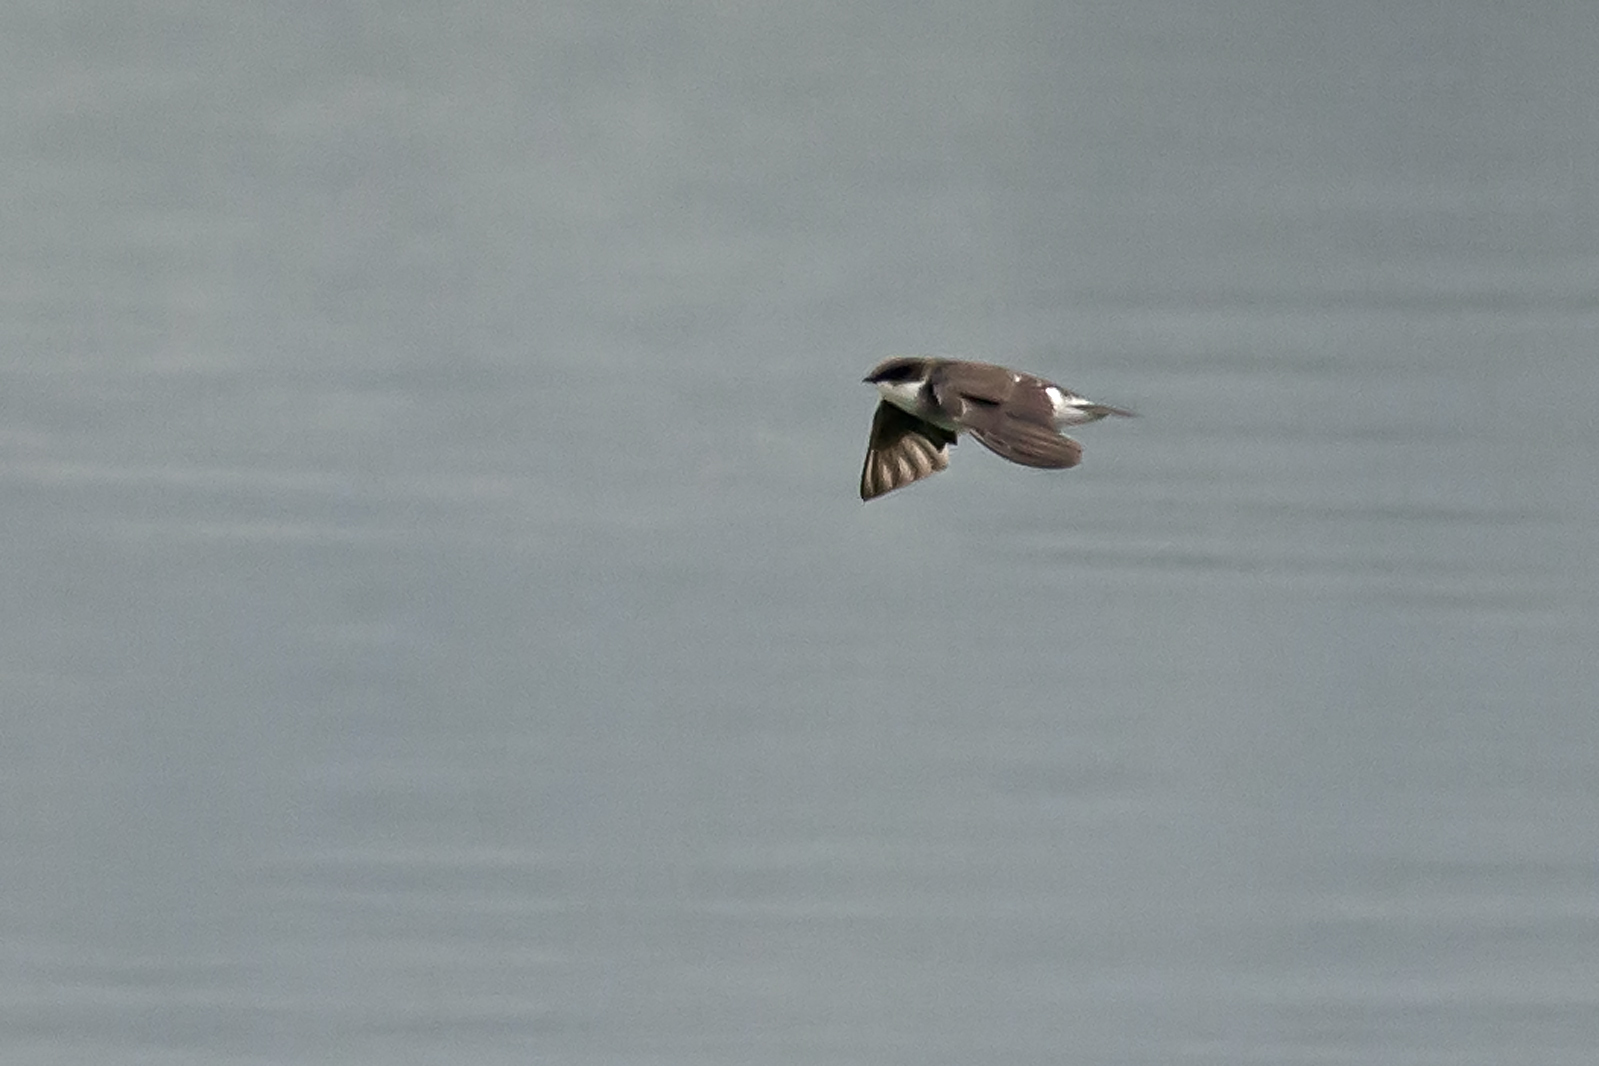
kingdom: Animalia
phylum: Chordata
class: Aves
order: Passeriformes
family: Hirundinidae
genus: Tachycineta
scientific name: Tachycineta bicolor
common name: Tree swallow
